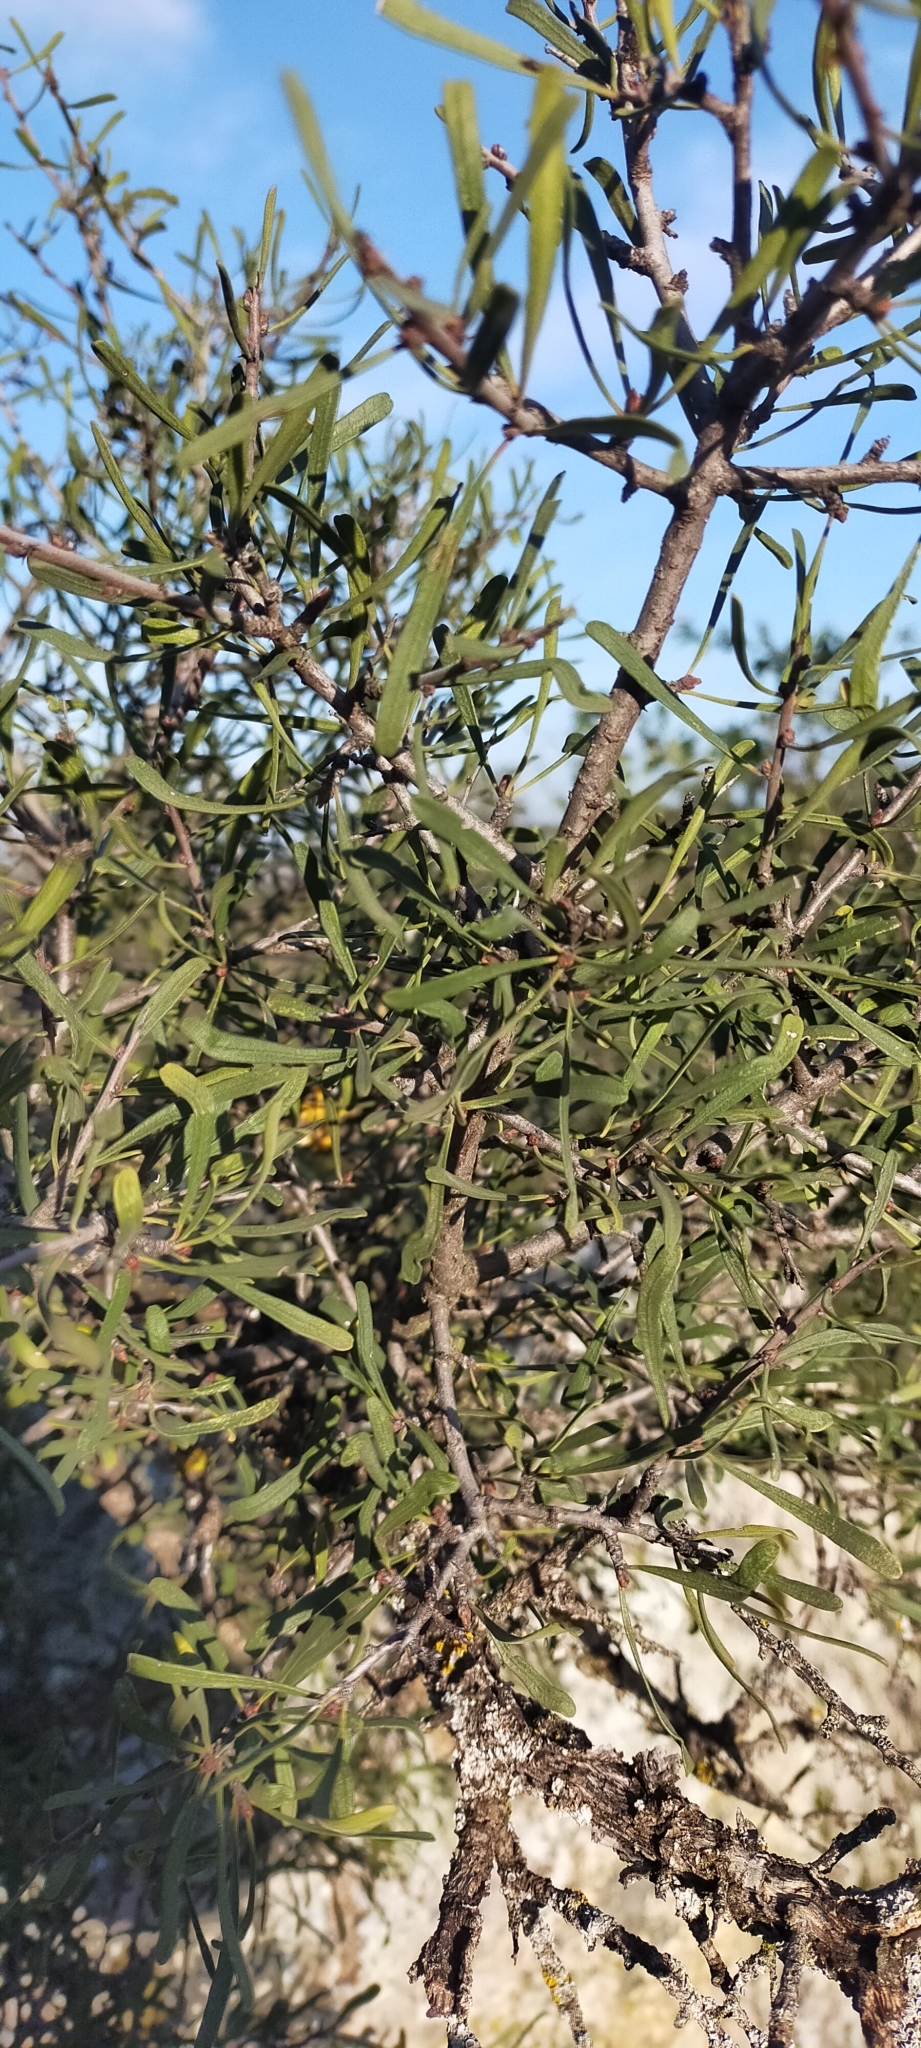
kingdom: Plantae
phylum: Tracheophyta
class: Magnoliopsida
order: Rosales
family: Rhamnaceae
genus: Rhamnus
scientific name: Rhamnus lycioides
